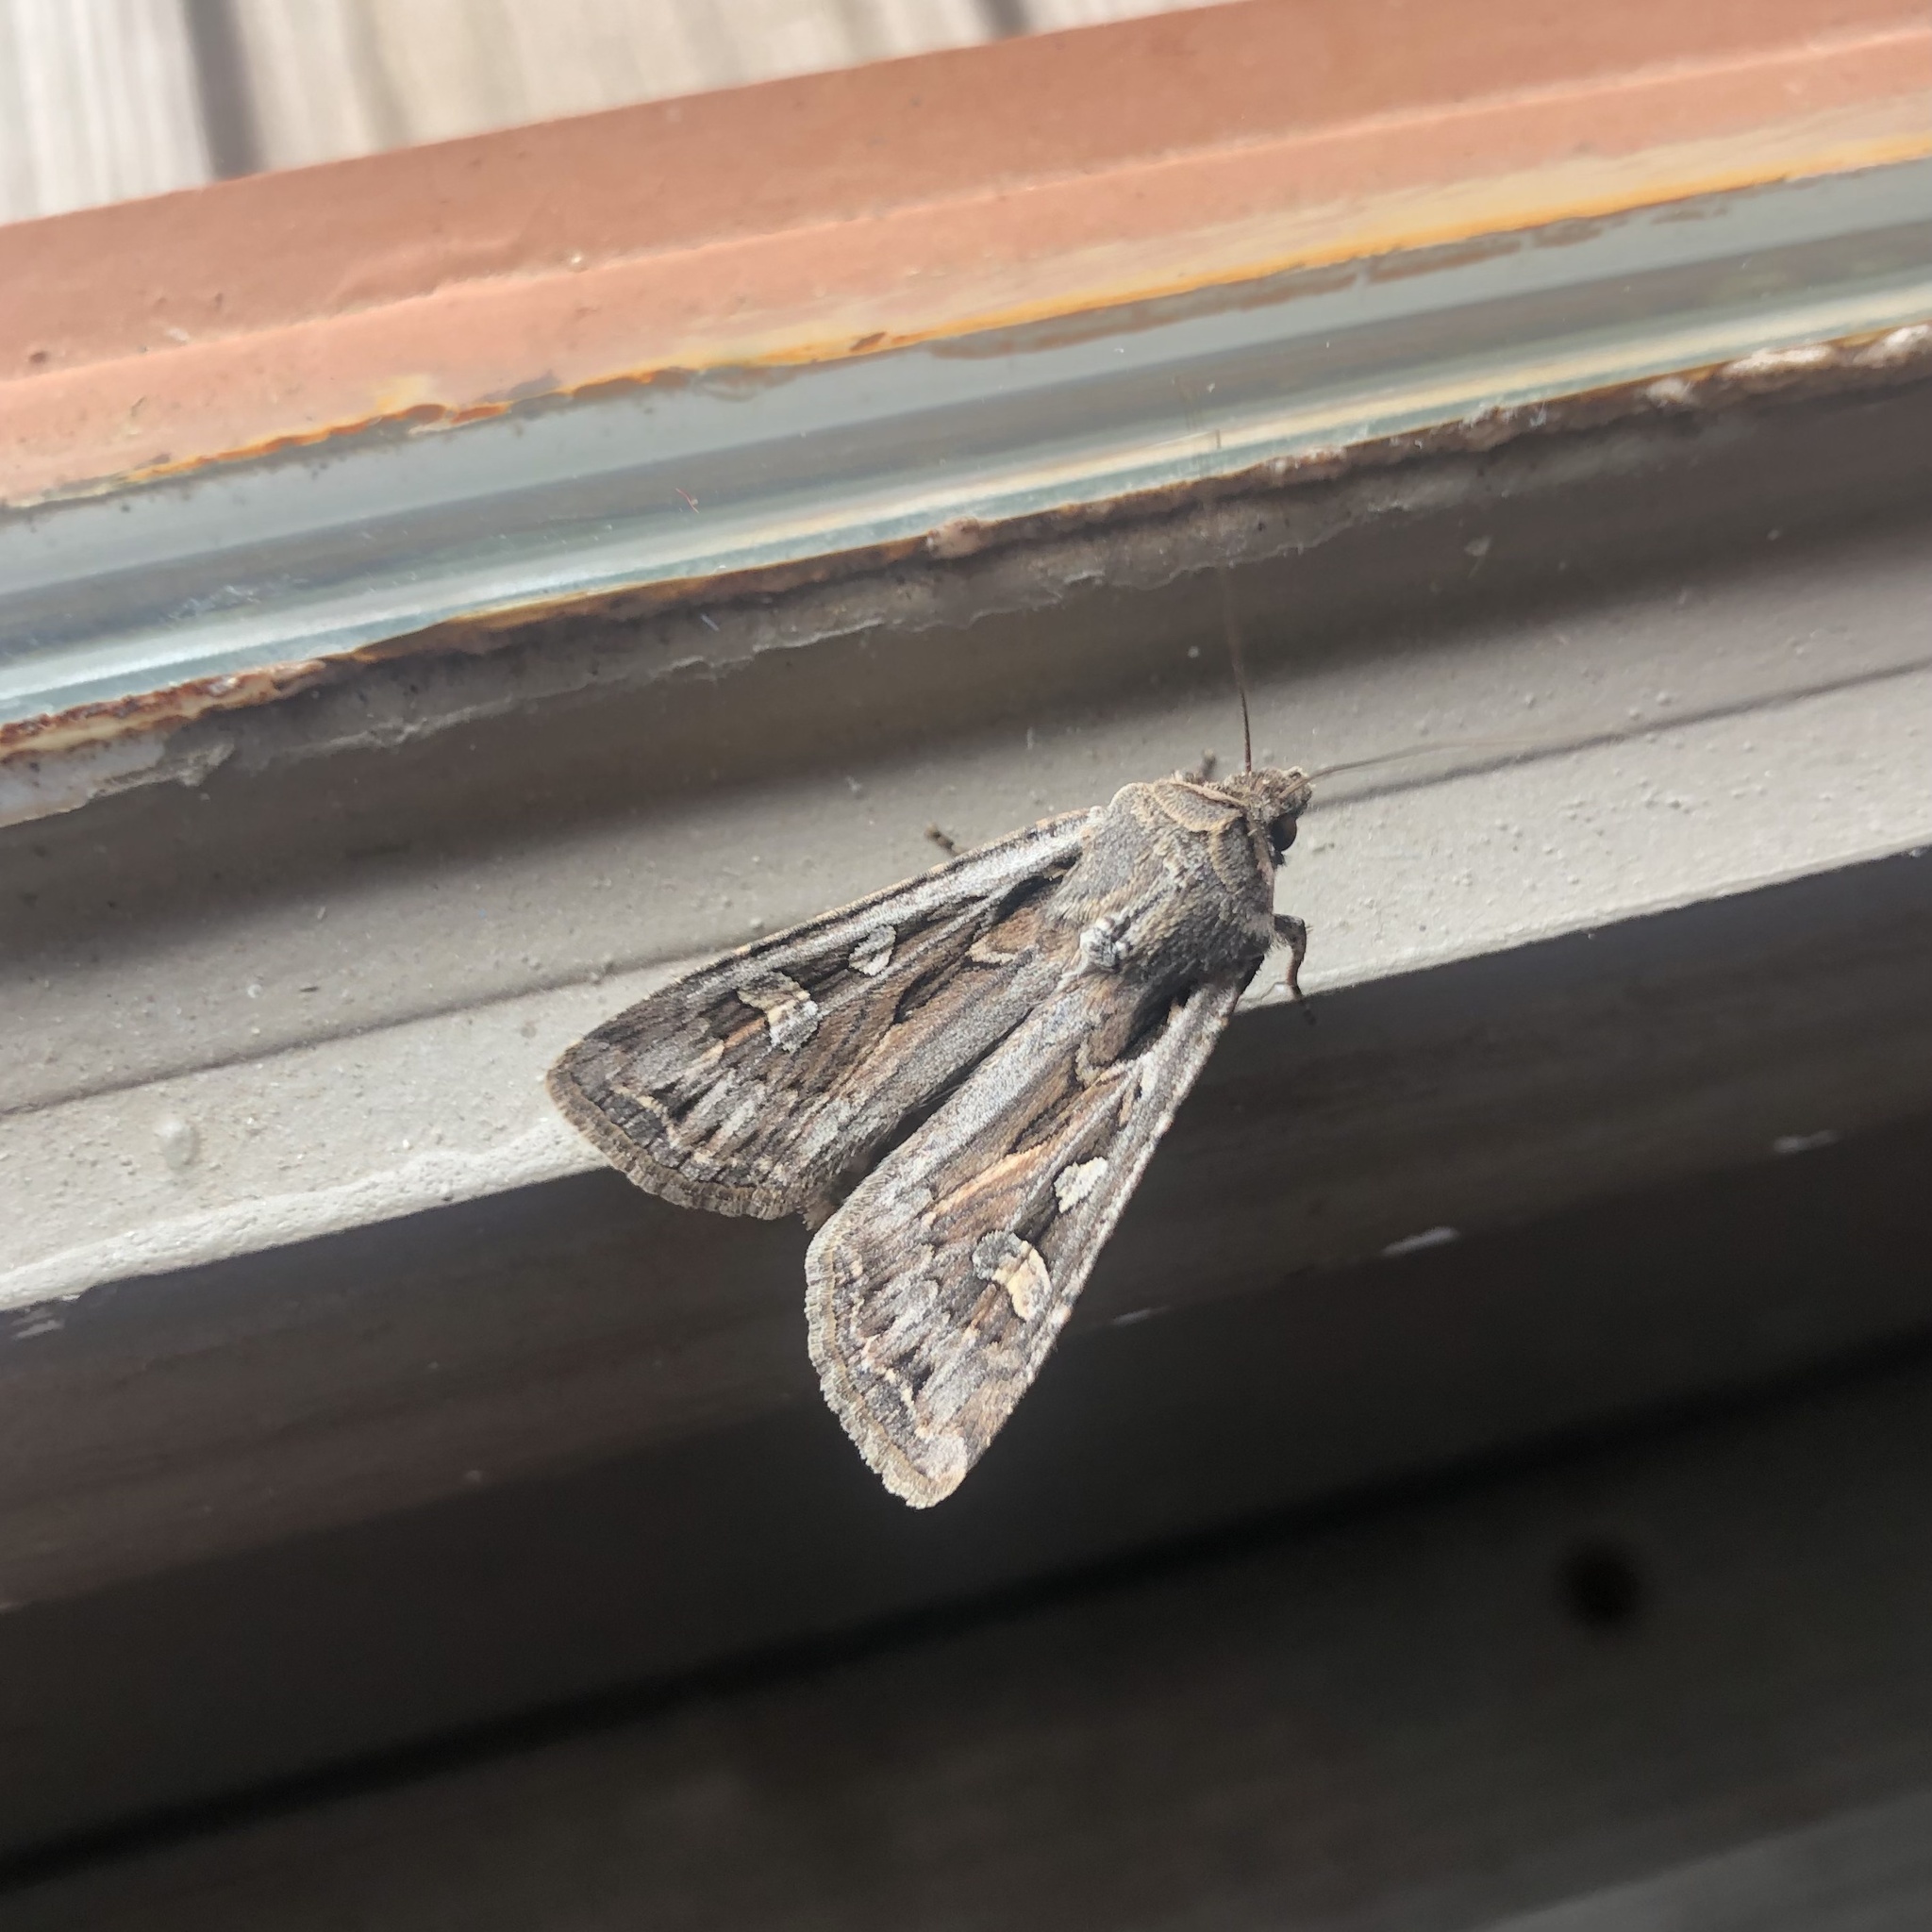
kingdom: Animalia
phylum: Arthropoda
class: Insecta
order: Lepidoptera
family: Noctuidae
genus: Euxoa
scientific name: Euxoa auxiliaris
